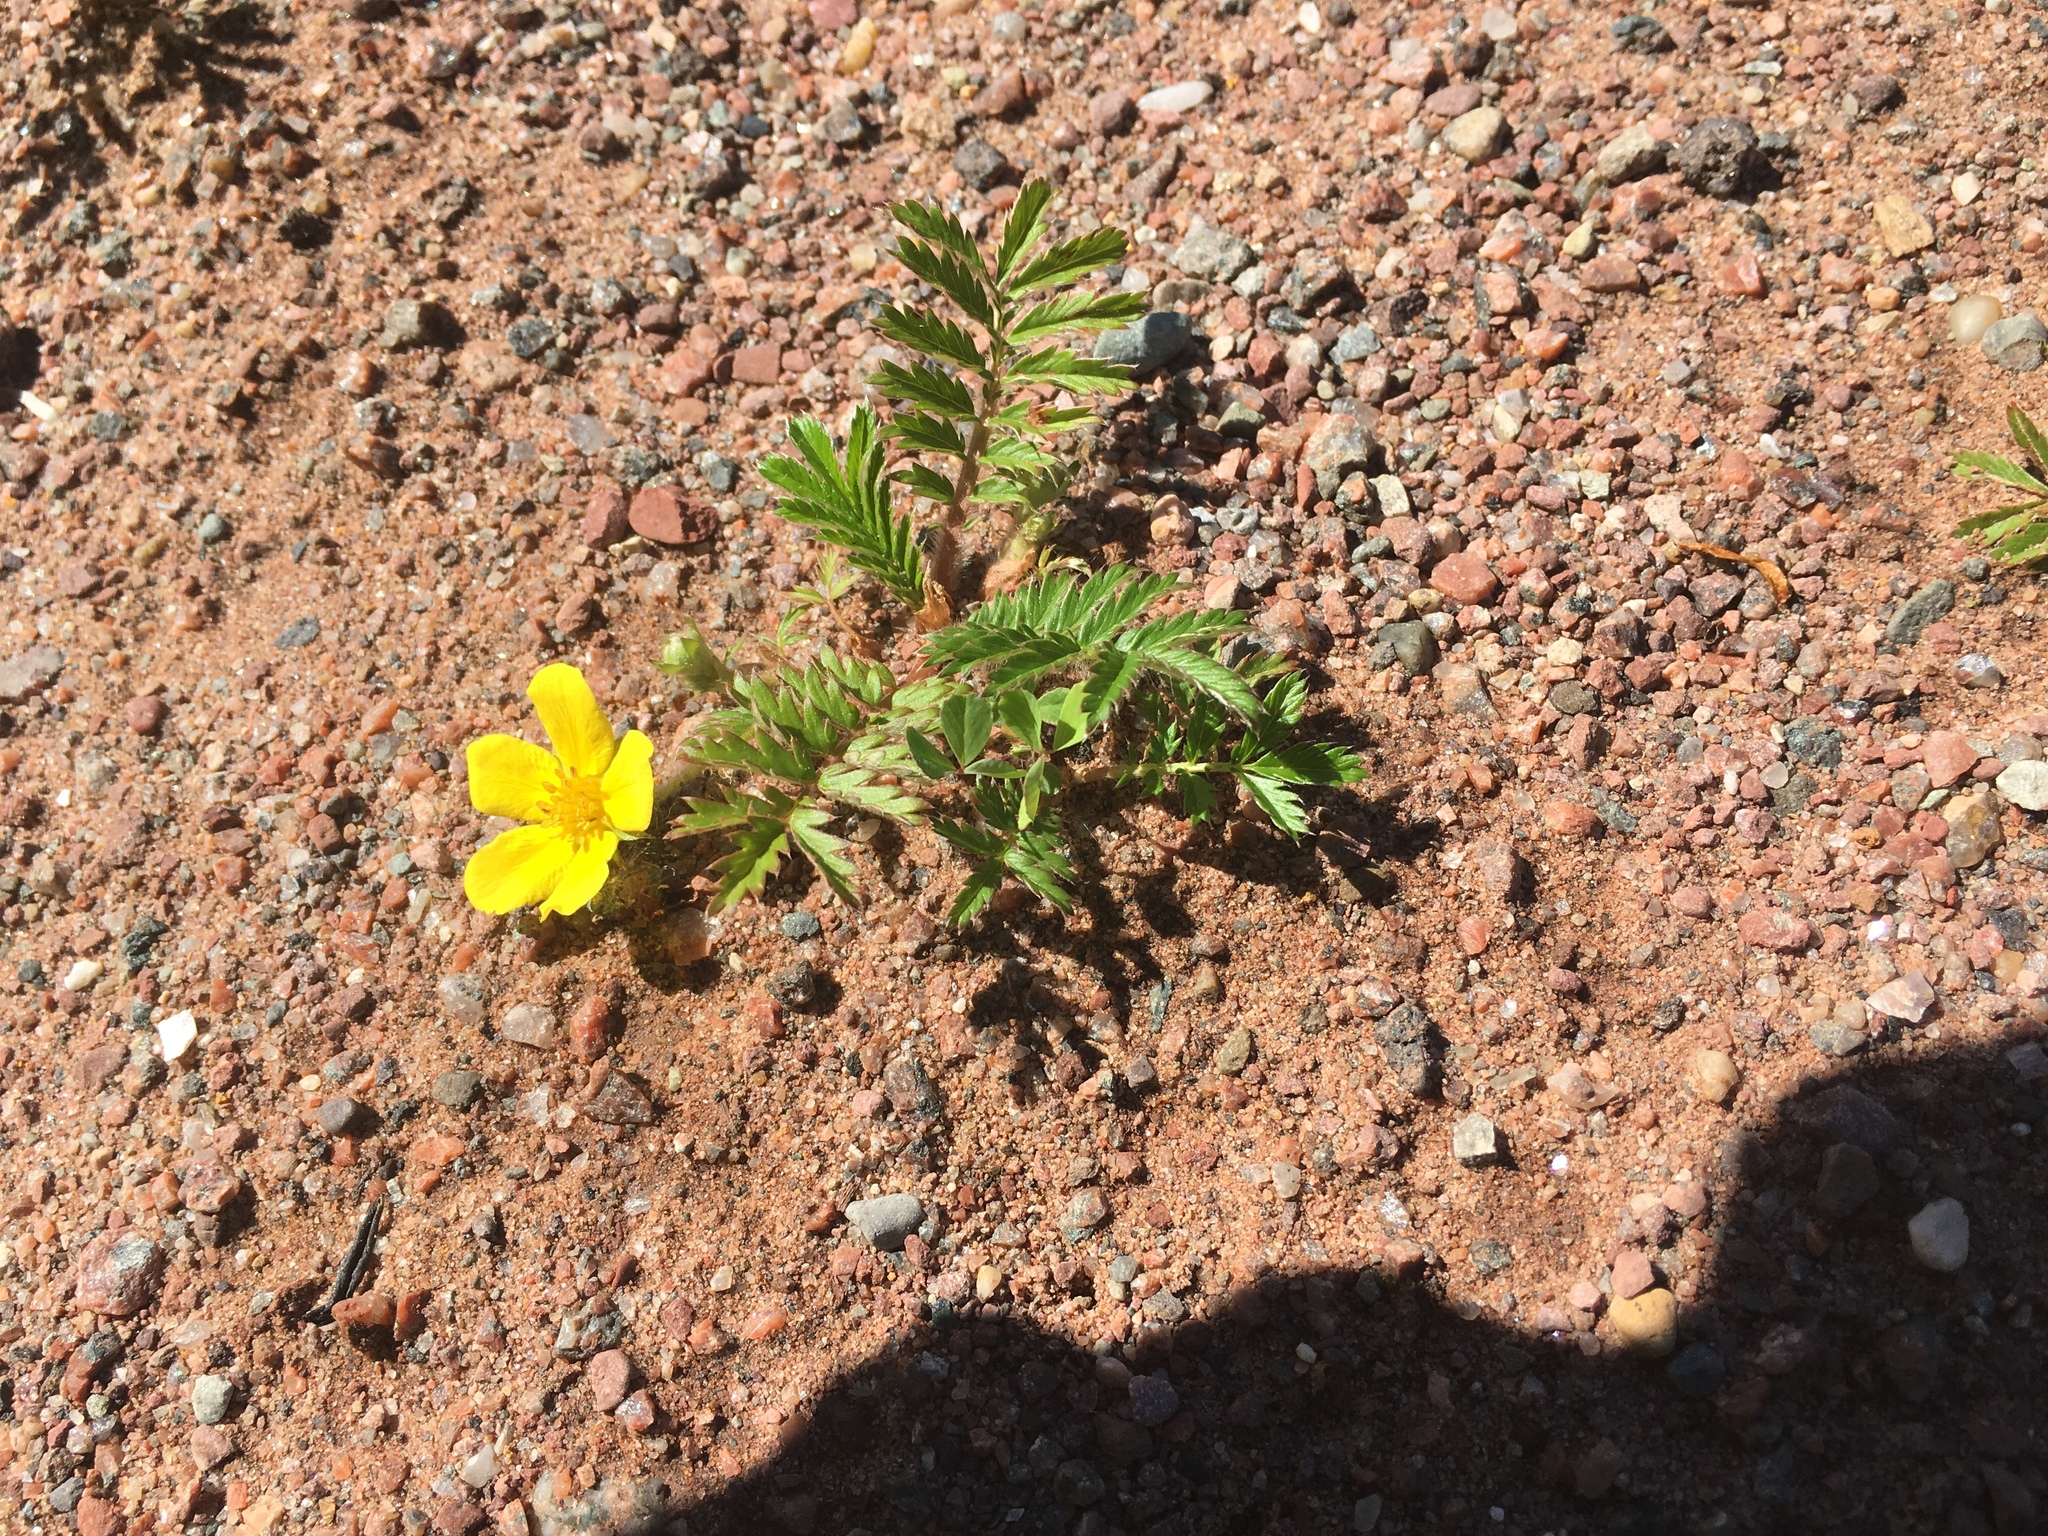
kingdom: Plantae
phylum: Tracheophyta
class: Magnoliopsida
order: Rosales
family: Rosaceae
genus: Argentina
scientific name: Argentina anserina
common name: Common silverweed
